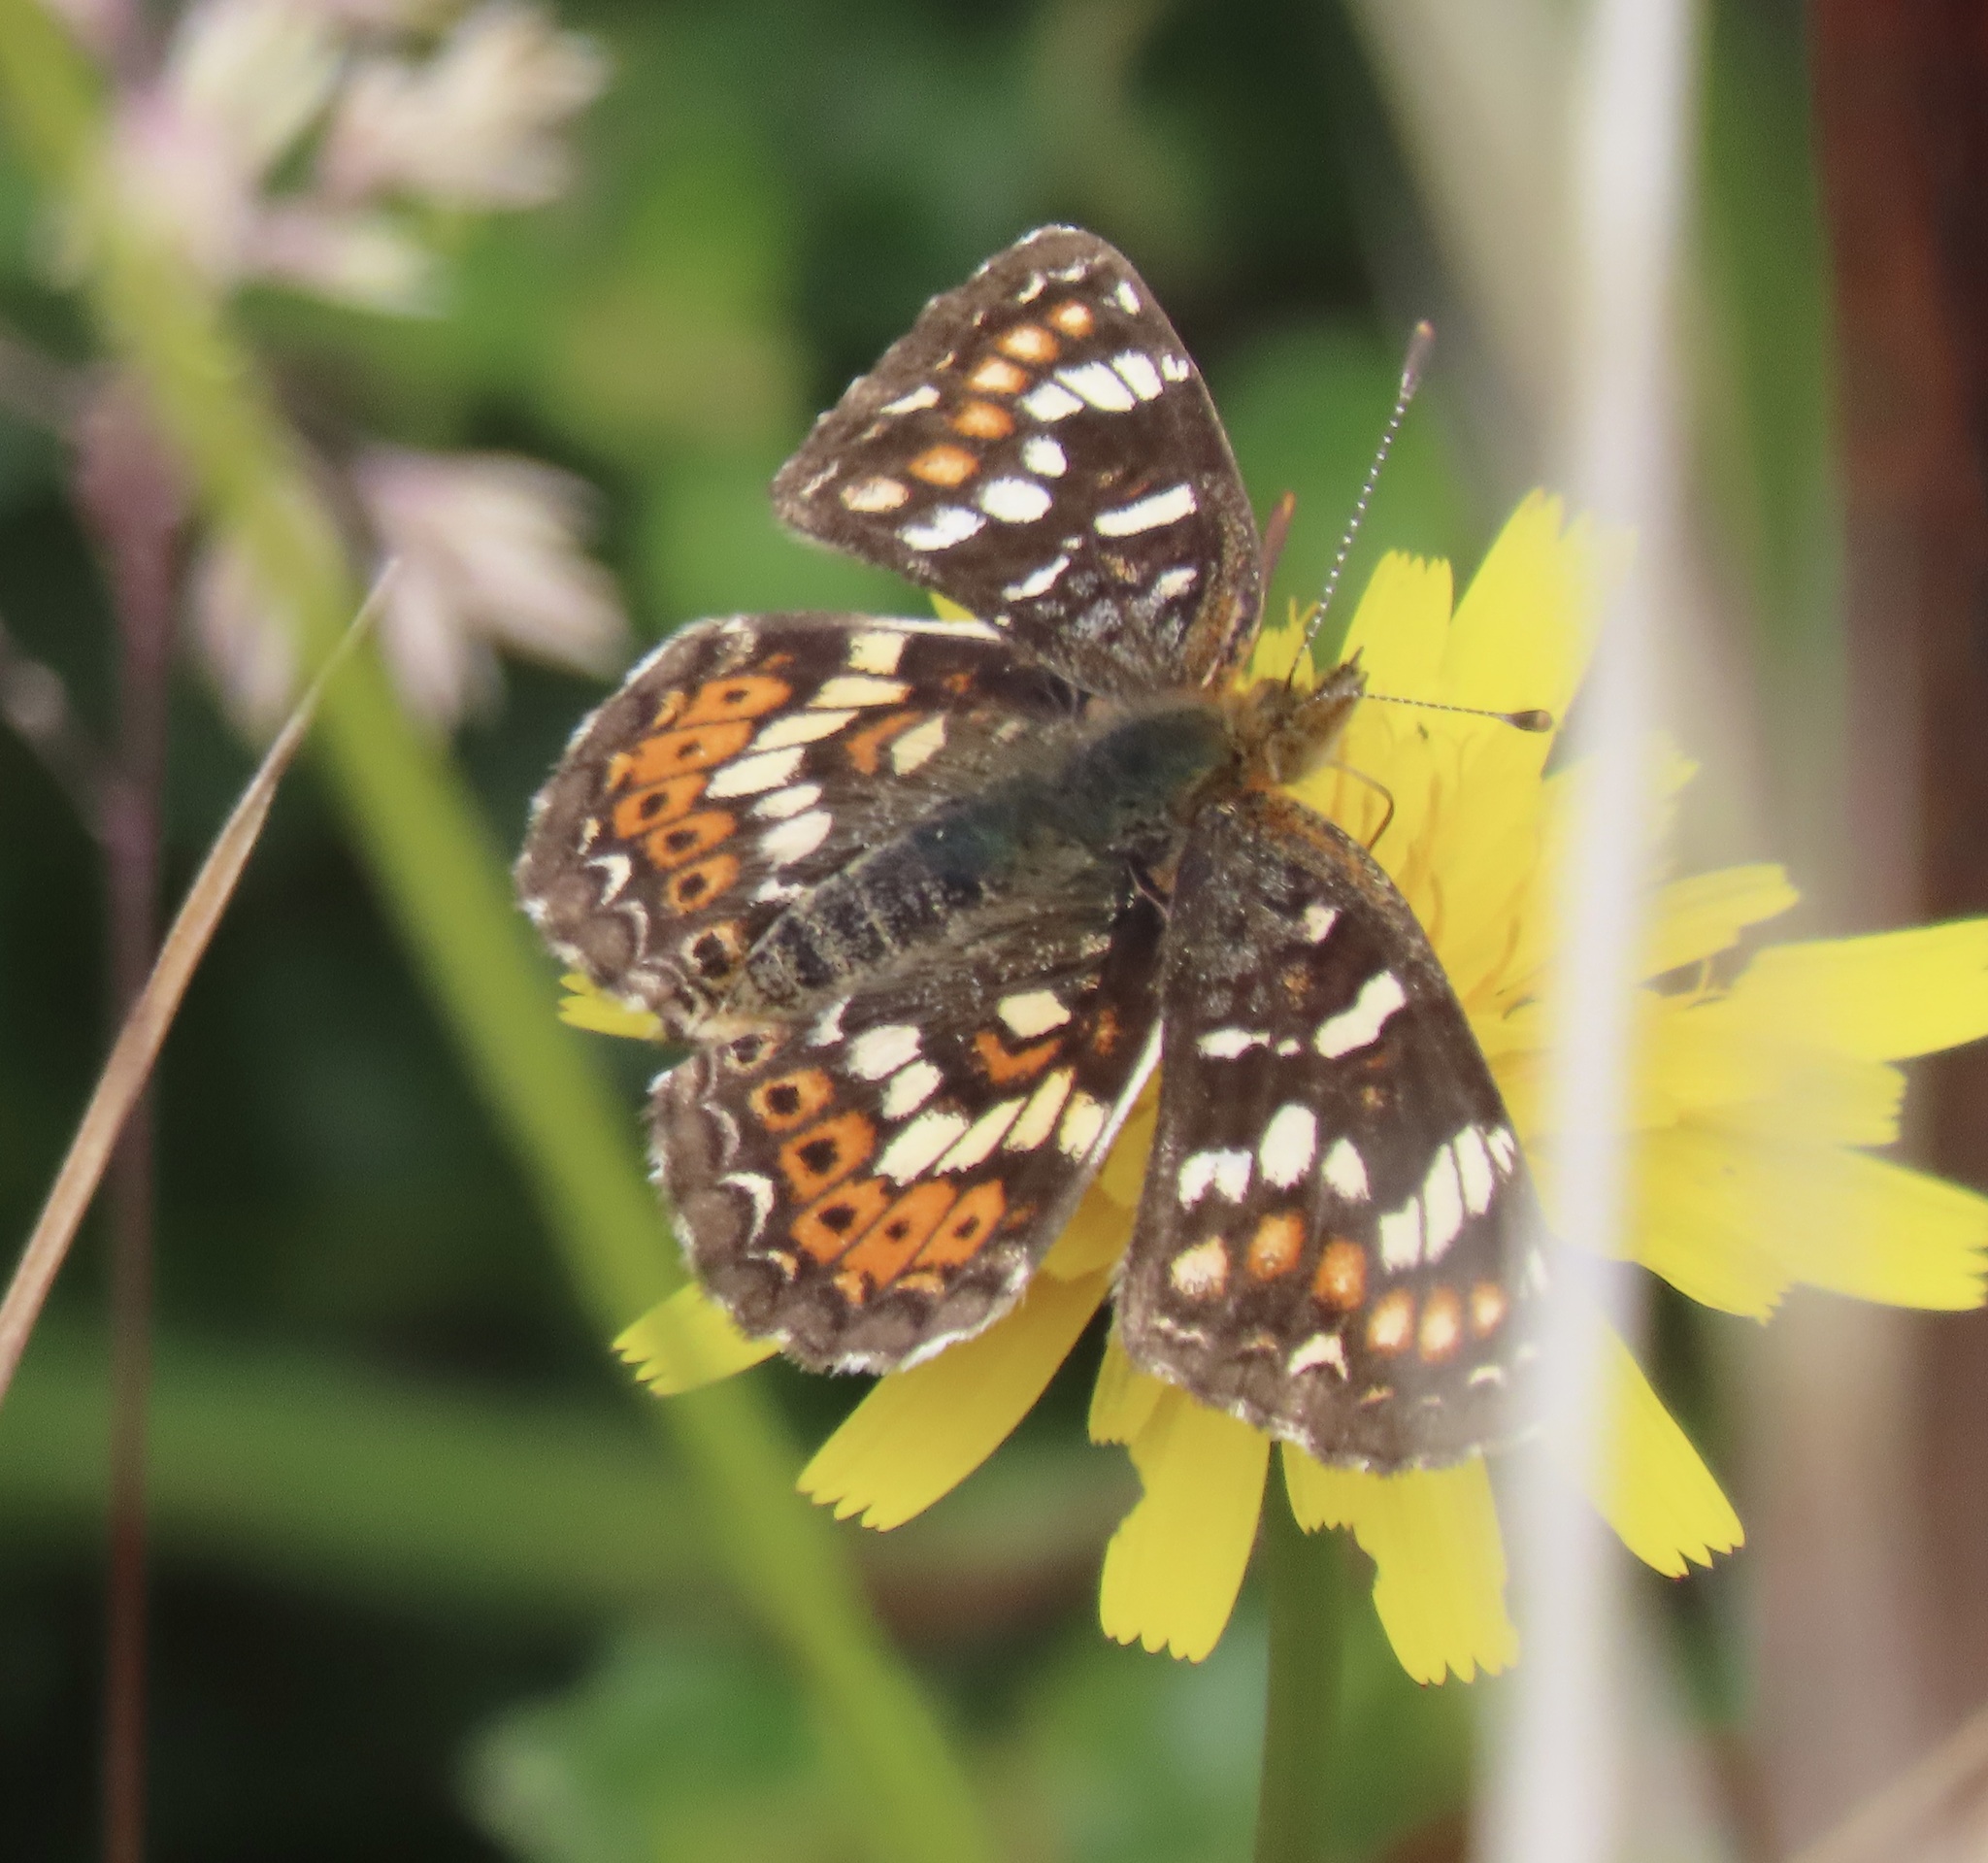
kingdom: Animalia
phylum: Arthropoda
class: Insecta
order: Lepidoptera
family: Nymphalidae
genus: Phyciodes
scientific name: Phyciodes tharos
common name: Pearl crescent
